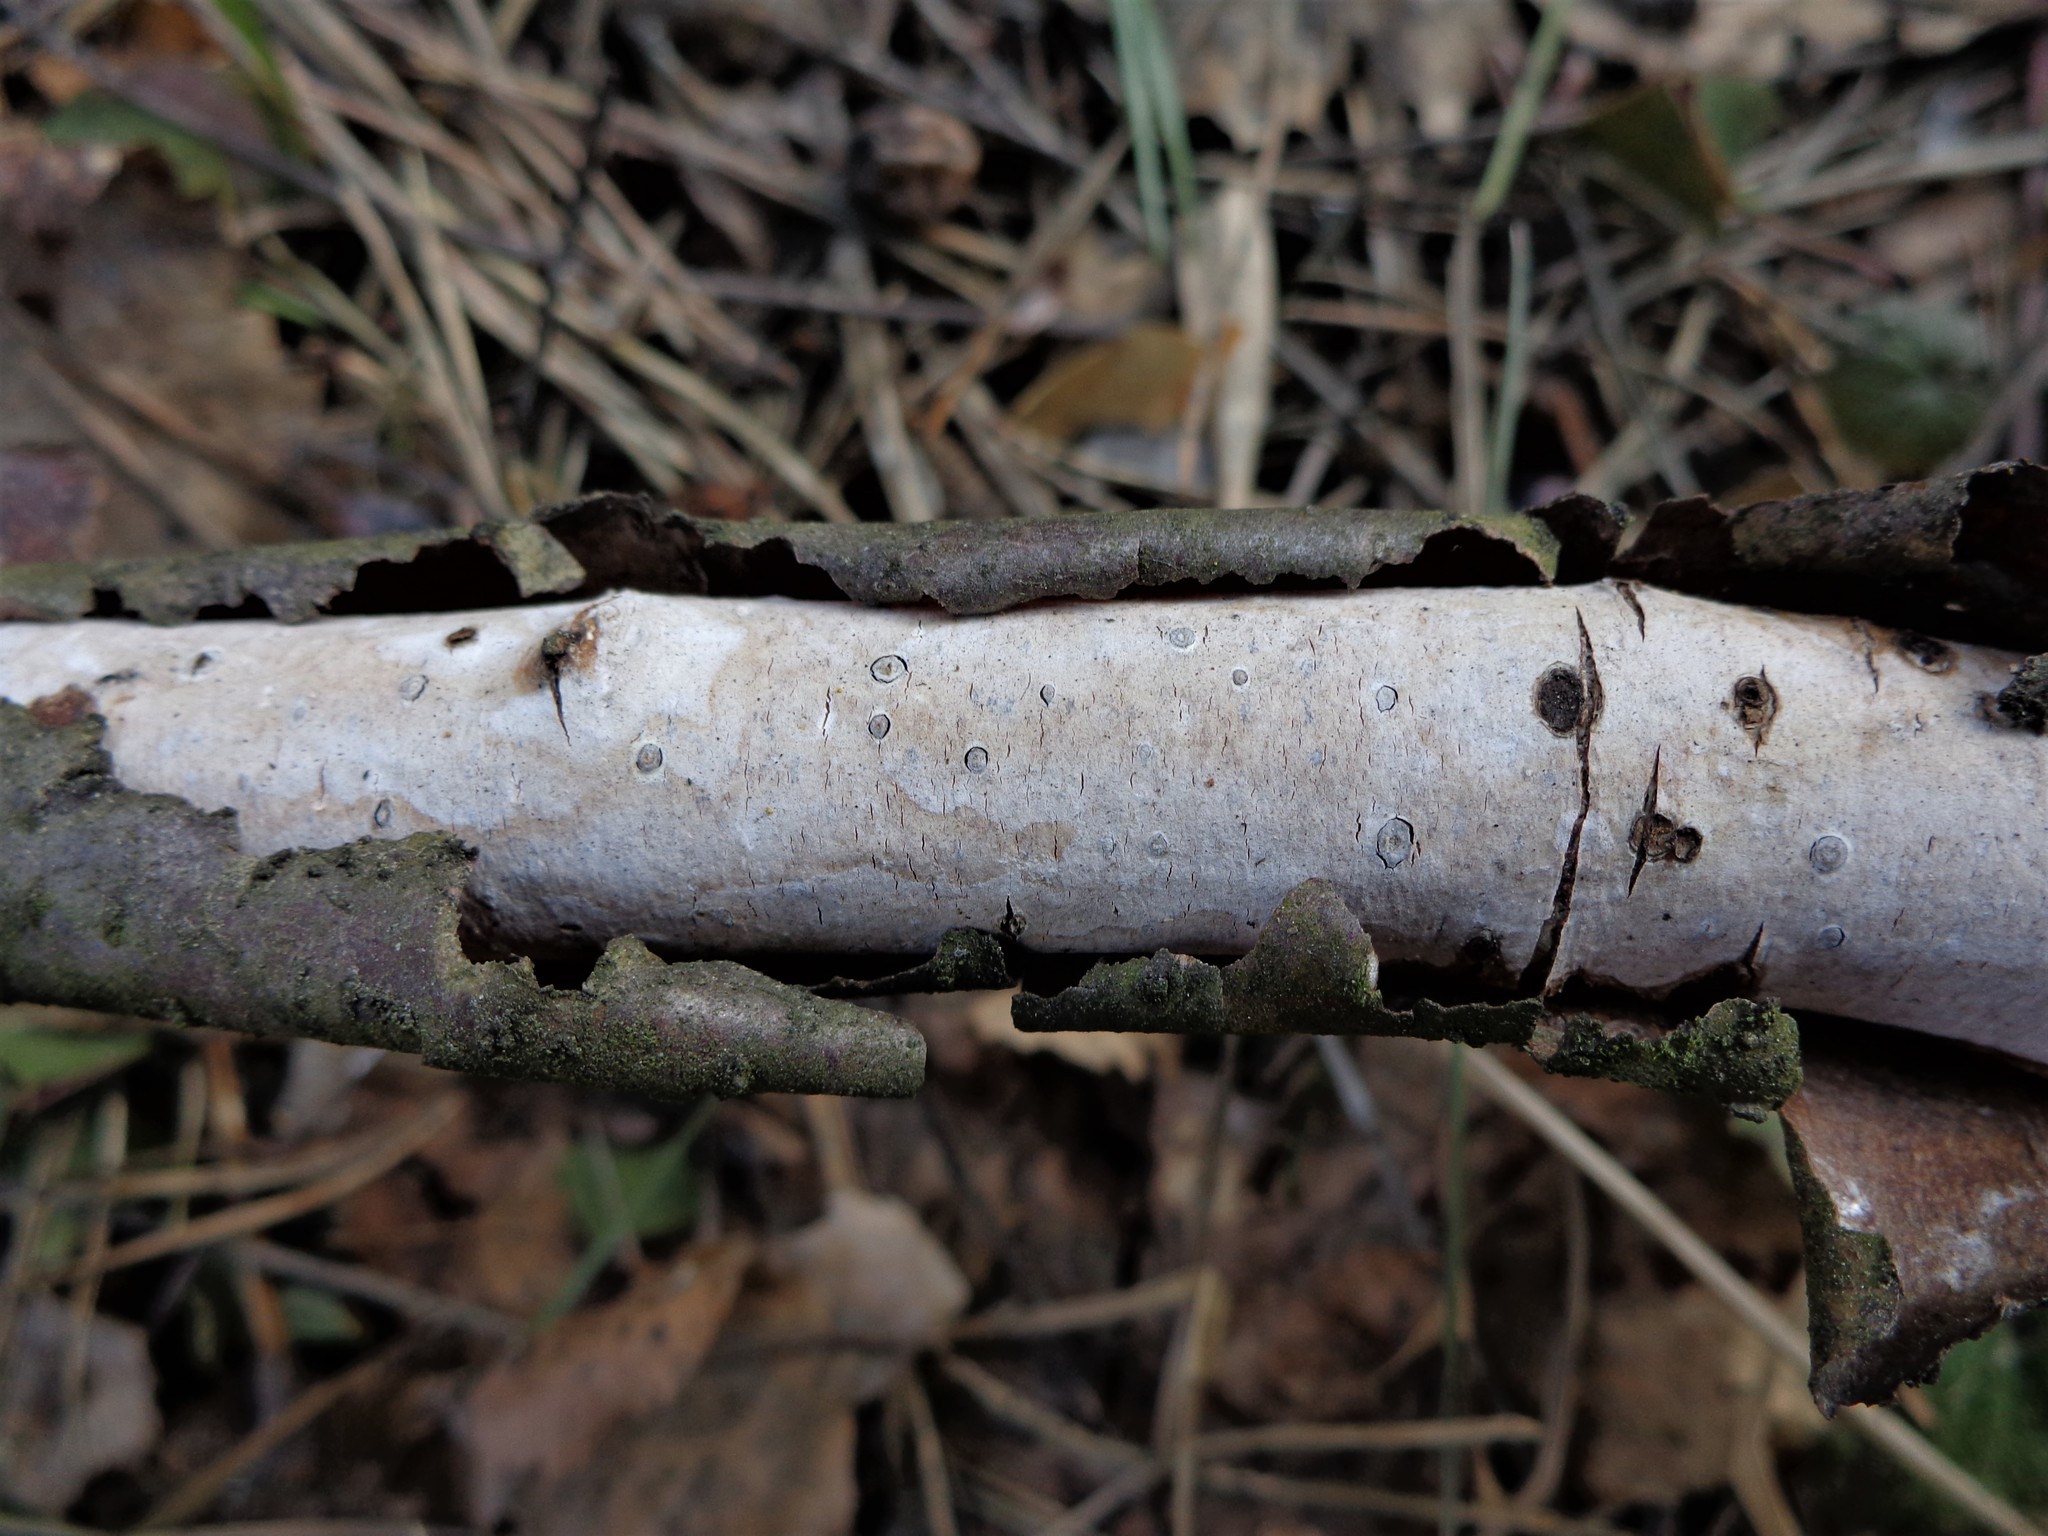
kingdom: Fungi
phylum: Basidiomycota
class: Agaricomycetes
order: Corticiales
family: Vuilleminiaceae
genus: Vuilleminia
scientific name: Vuilleminia comedens
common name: Waxy crust
